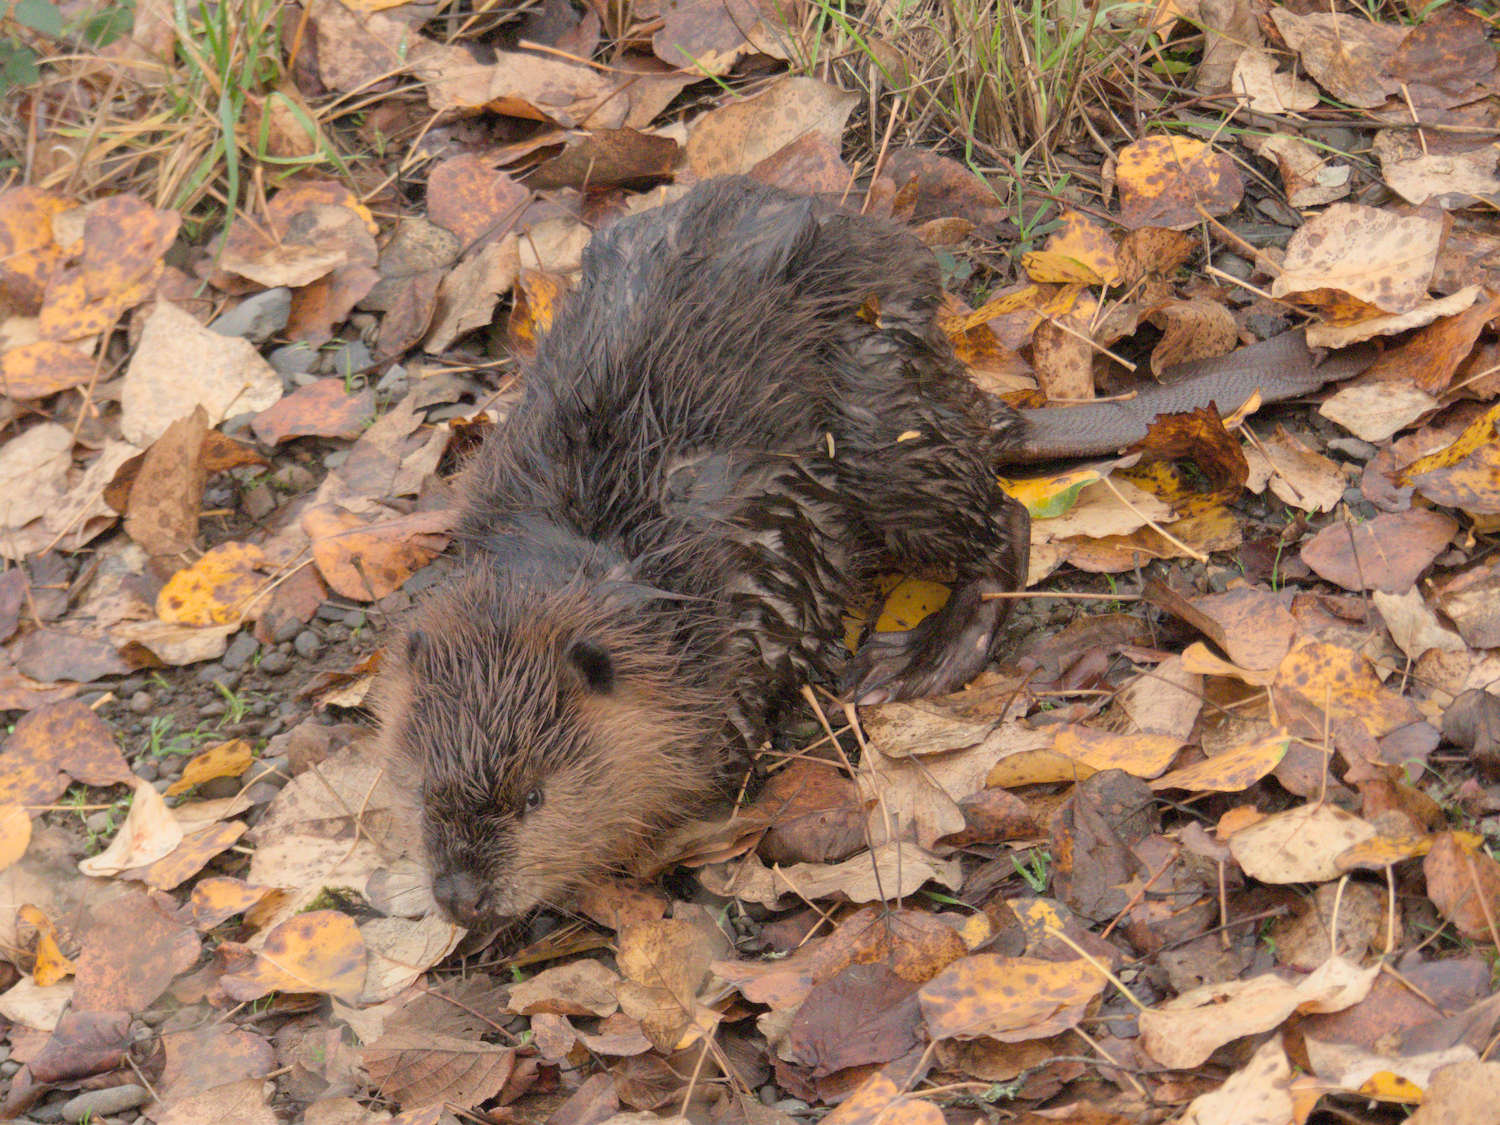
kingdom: Animalia
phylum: Chordata
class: Mammalia
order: Rodentia
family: Castoridae
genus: Castor
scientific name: Castor canadensis
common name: American beaver
